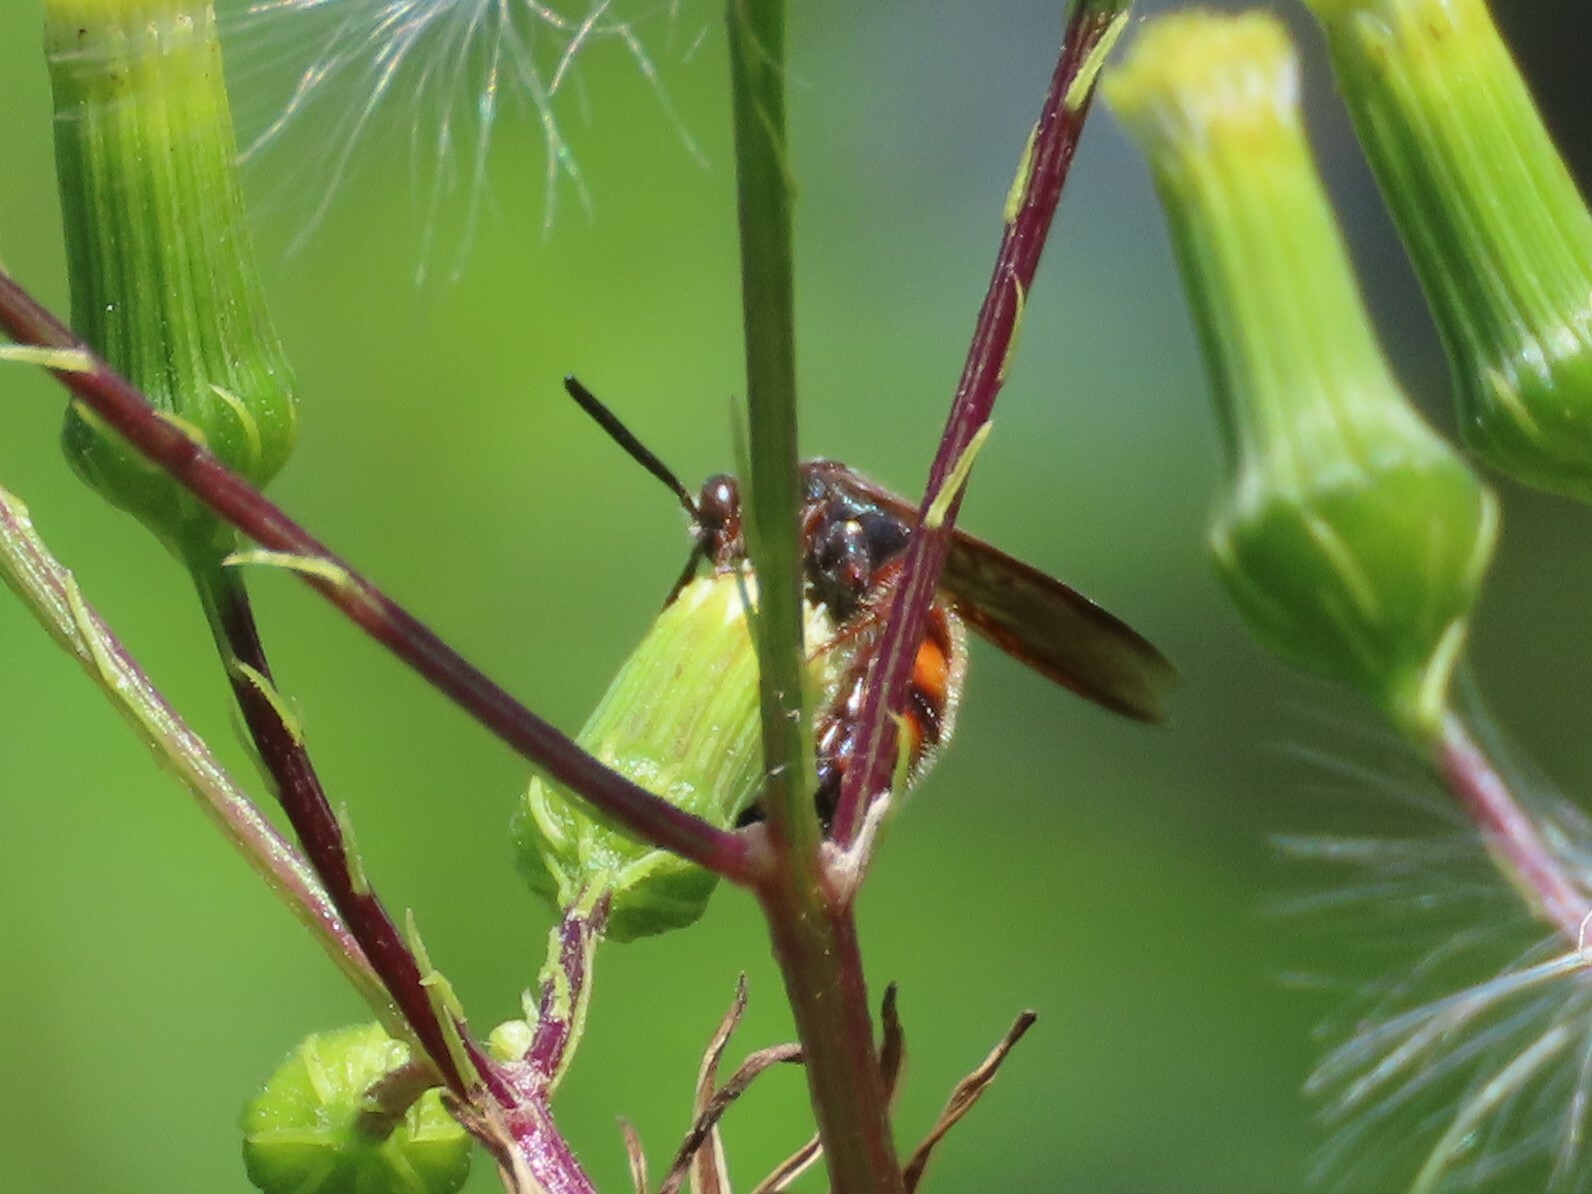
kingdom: Animalia
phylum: Arthropoda
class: Insecta
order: Hymenoptera
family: Scoliidae
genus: Scolia
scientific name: Scolia nobilitata
